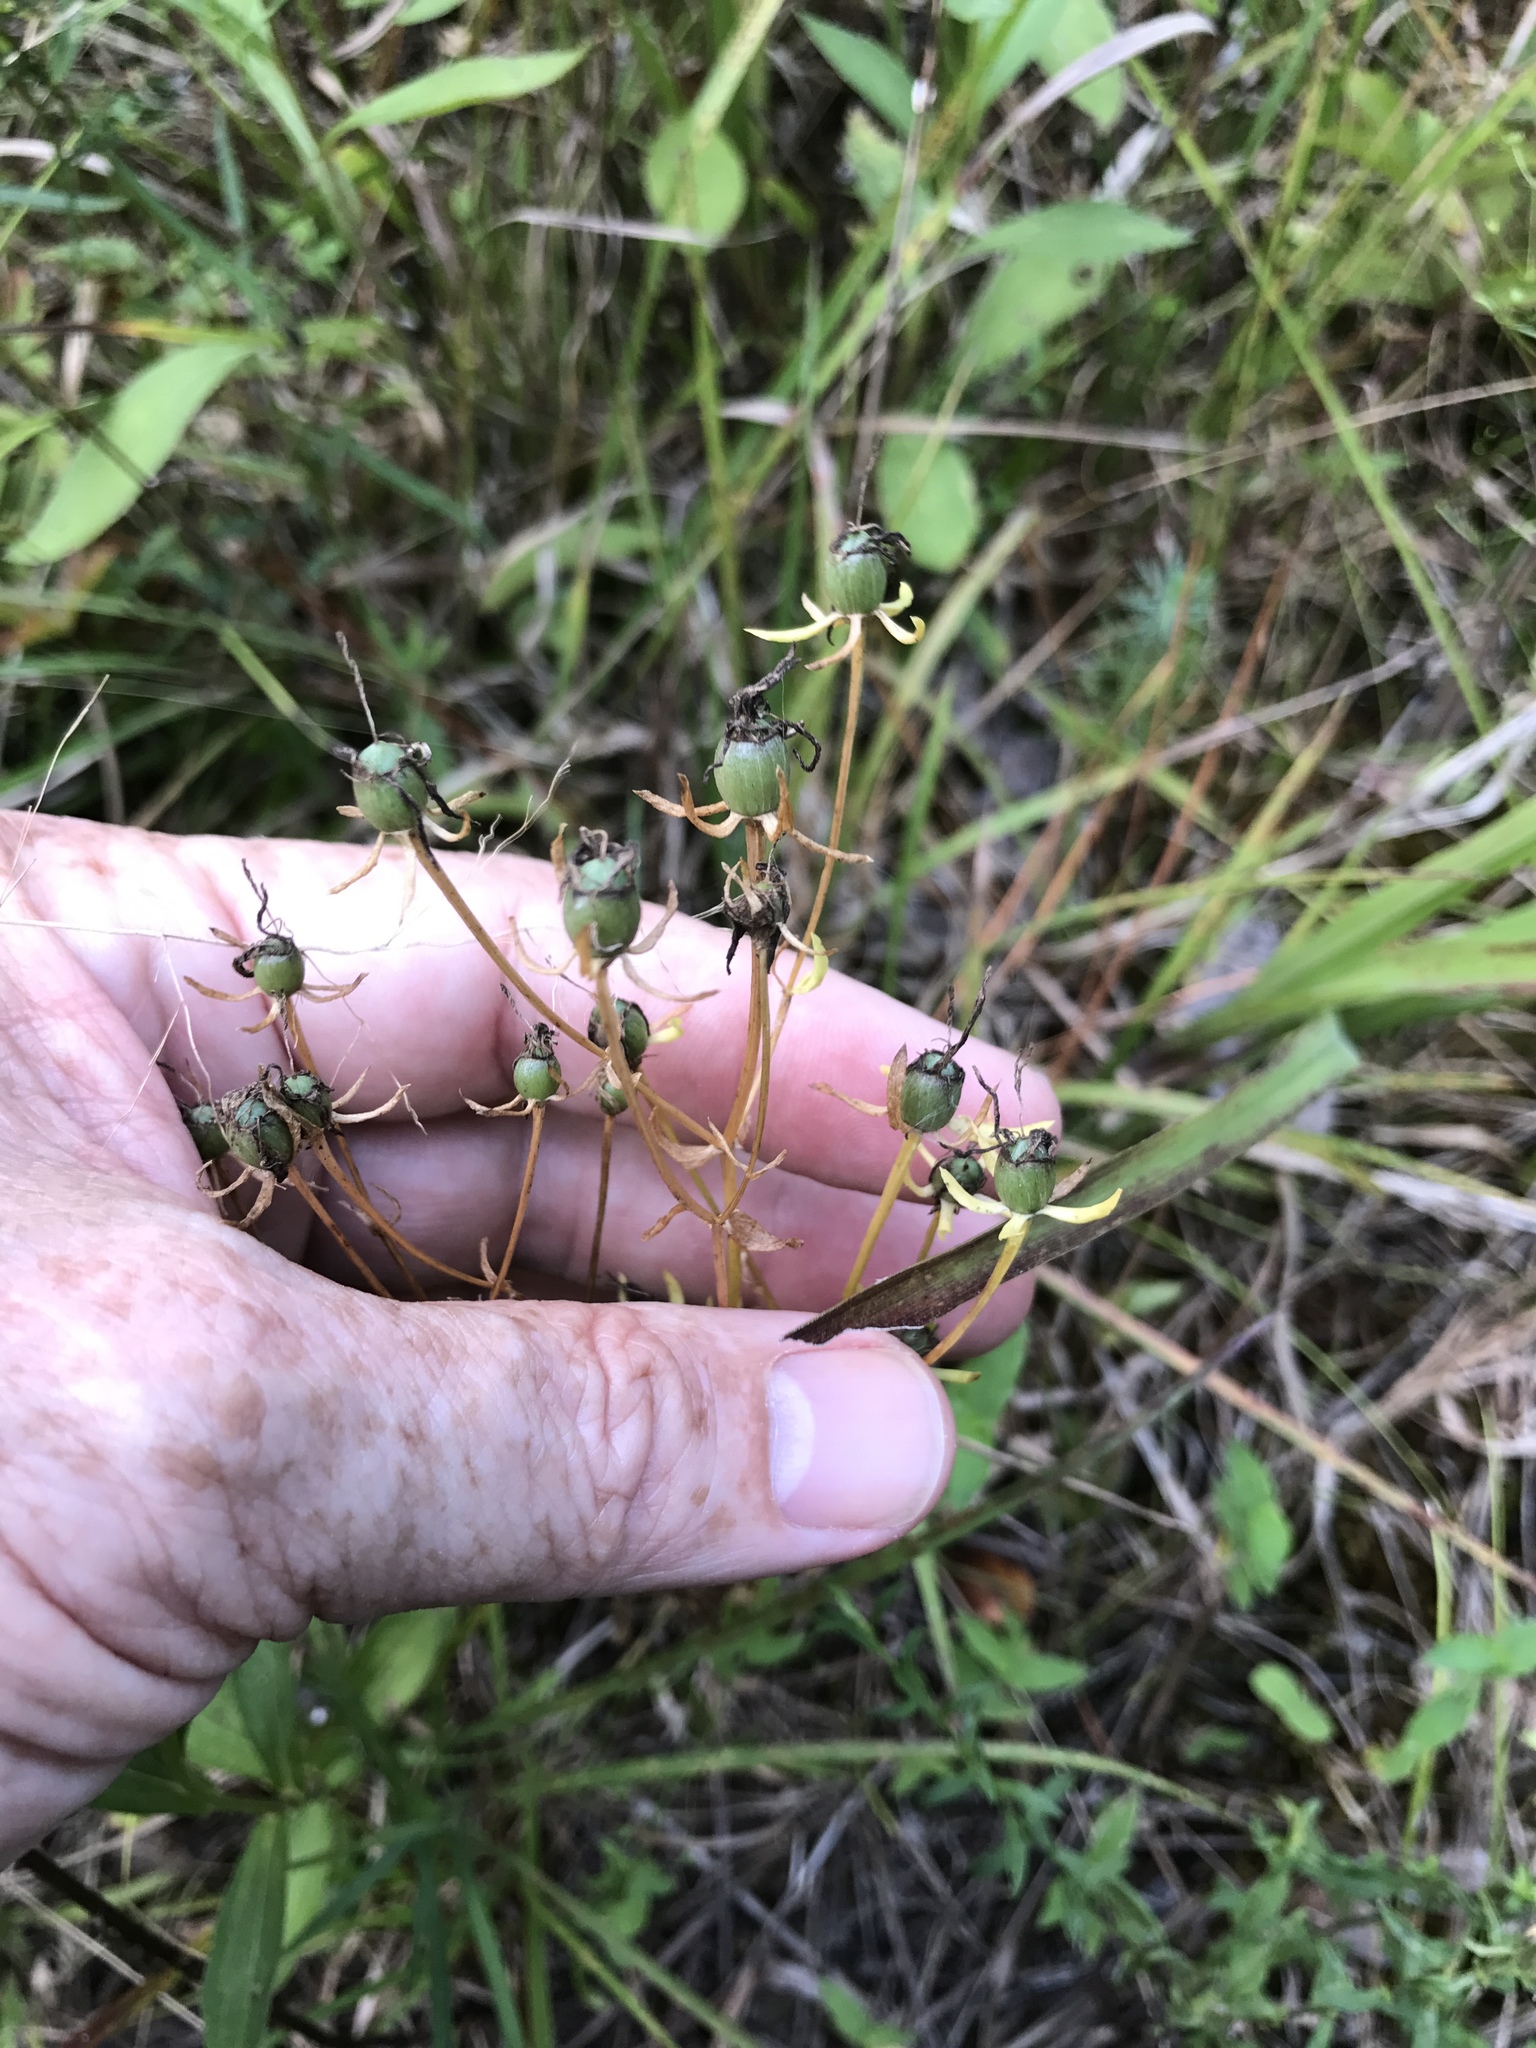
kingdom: Plantae
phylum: Tracheophyta
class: Magnoliopsida
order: Gentianales
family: Gentianaceae
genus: Sabatia
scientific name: Sabatia angularis
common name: Rose-pink
